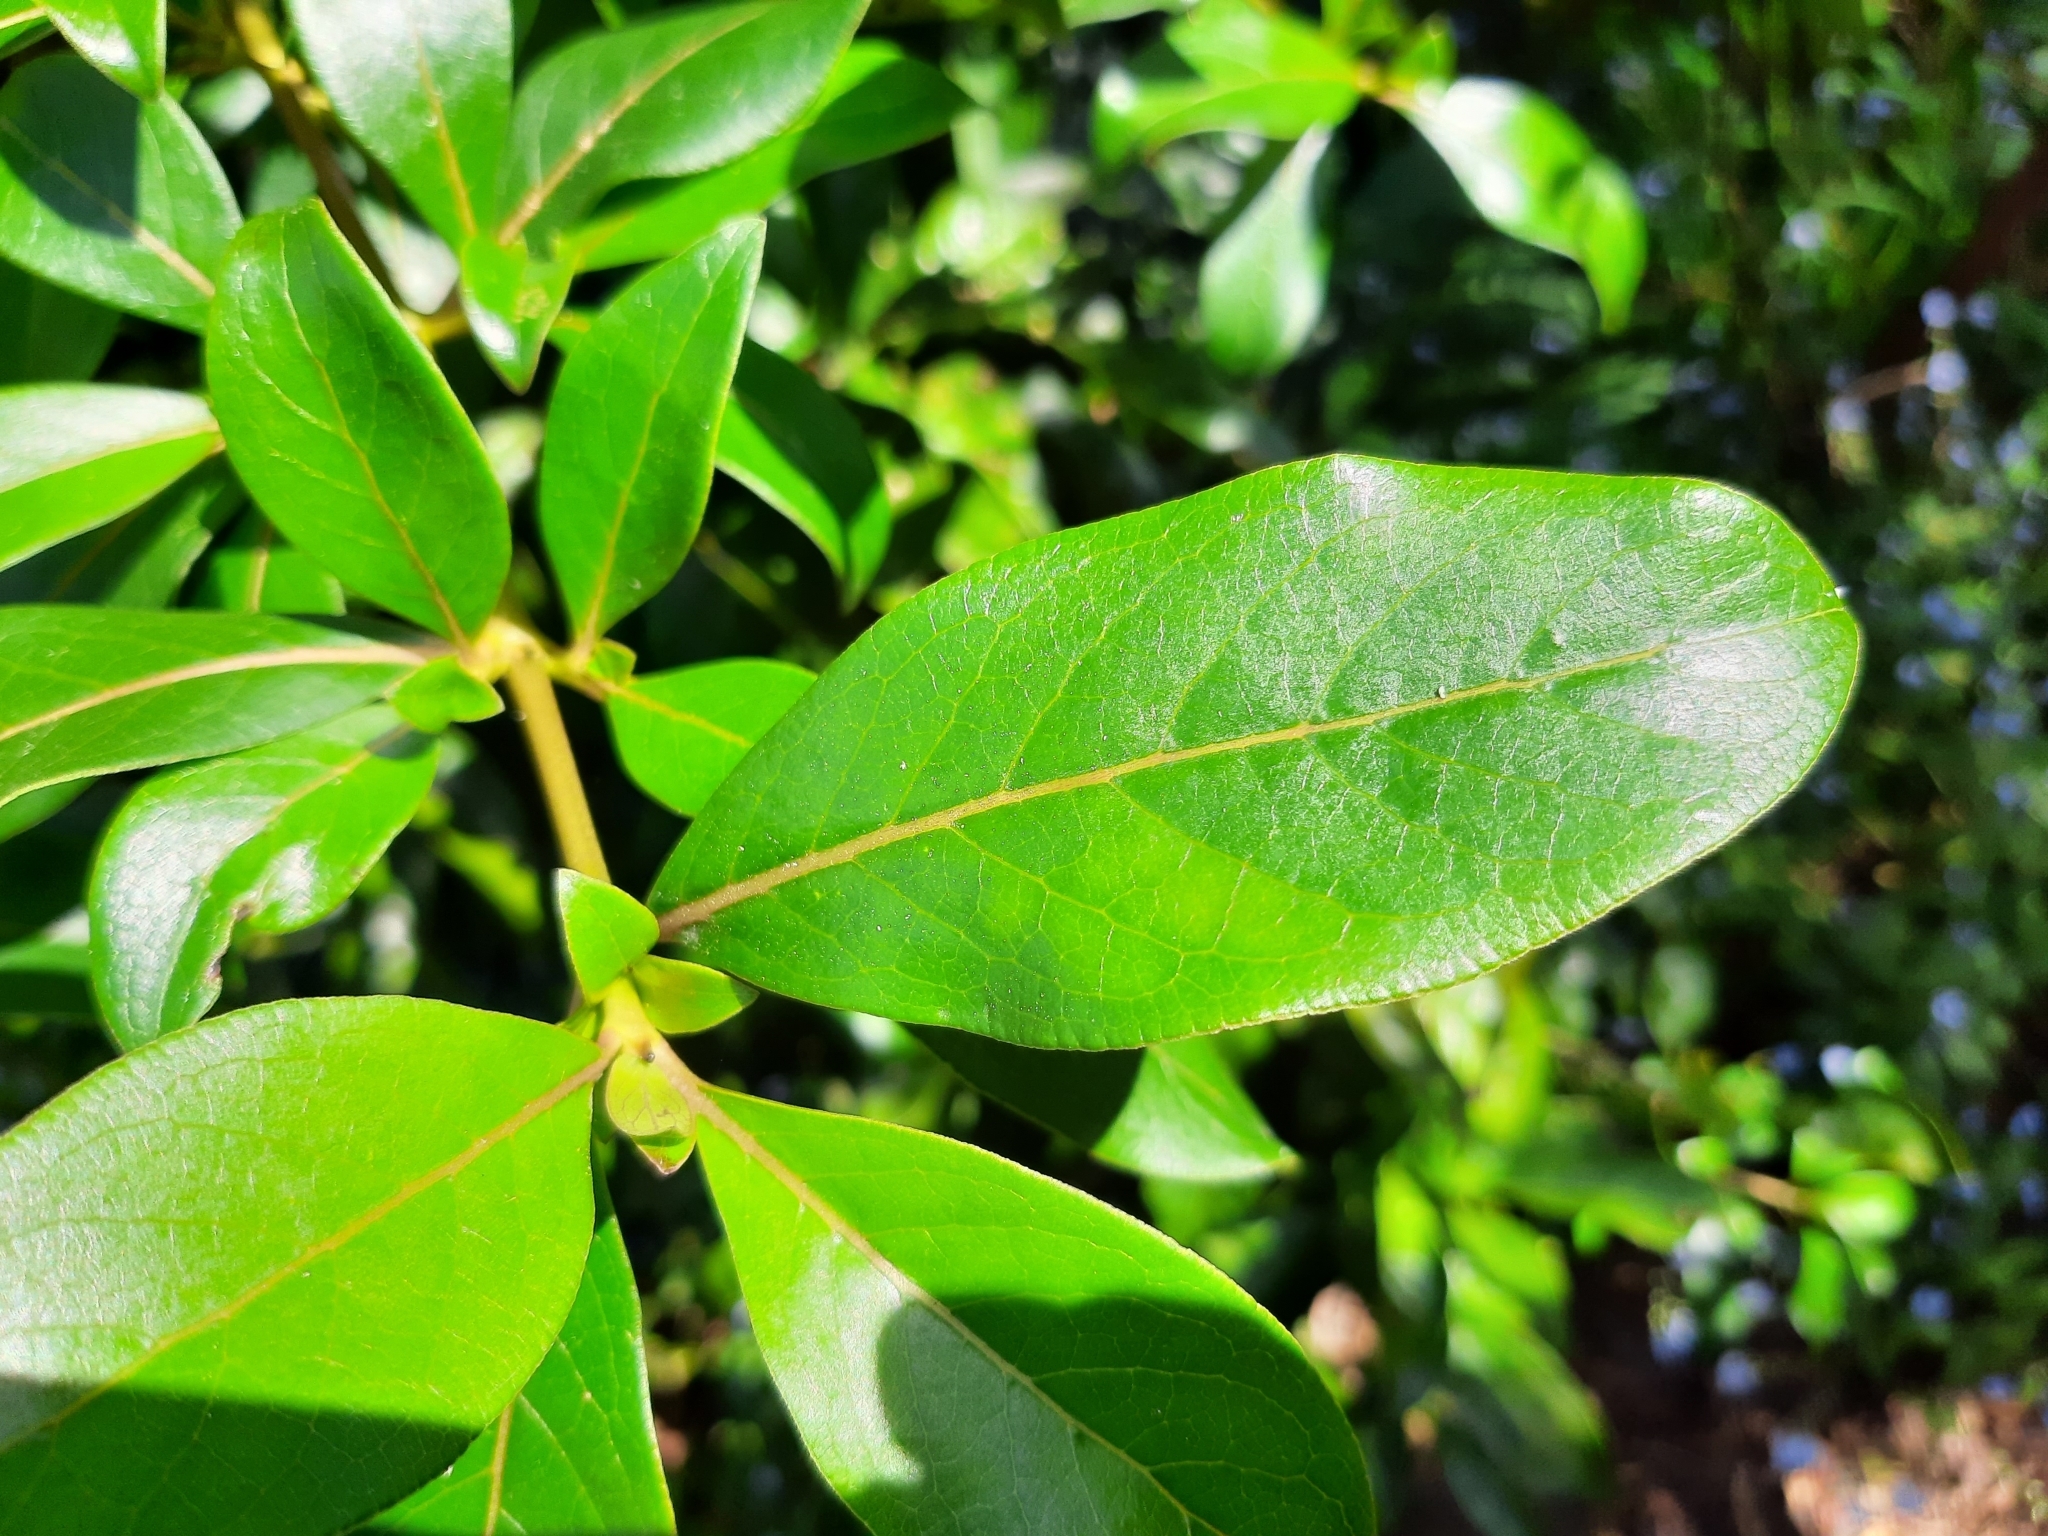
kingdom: Plantae
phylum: Tracheophyta
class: Magnoliopsida
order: Gentianales
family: Rubiaceae
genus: Coprosma
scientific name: Coprosma robusta
